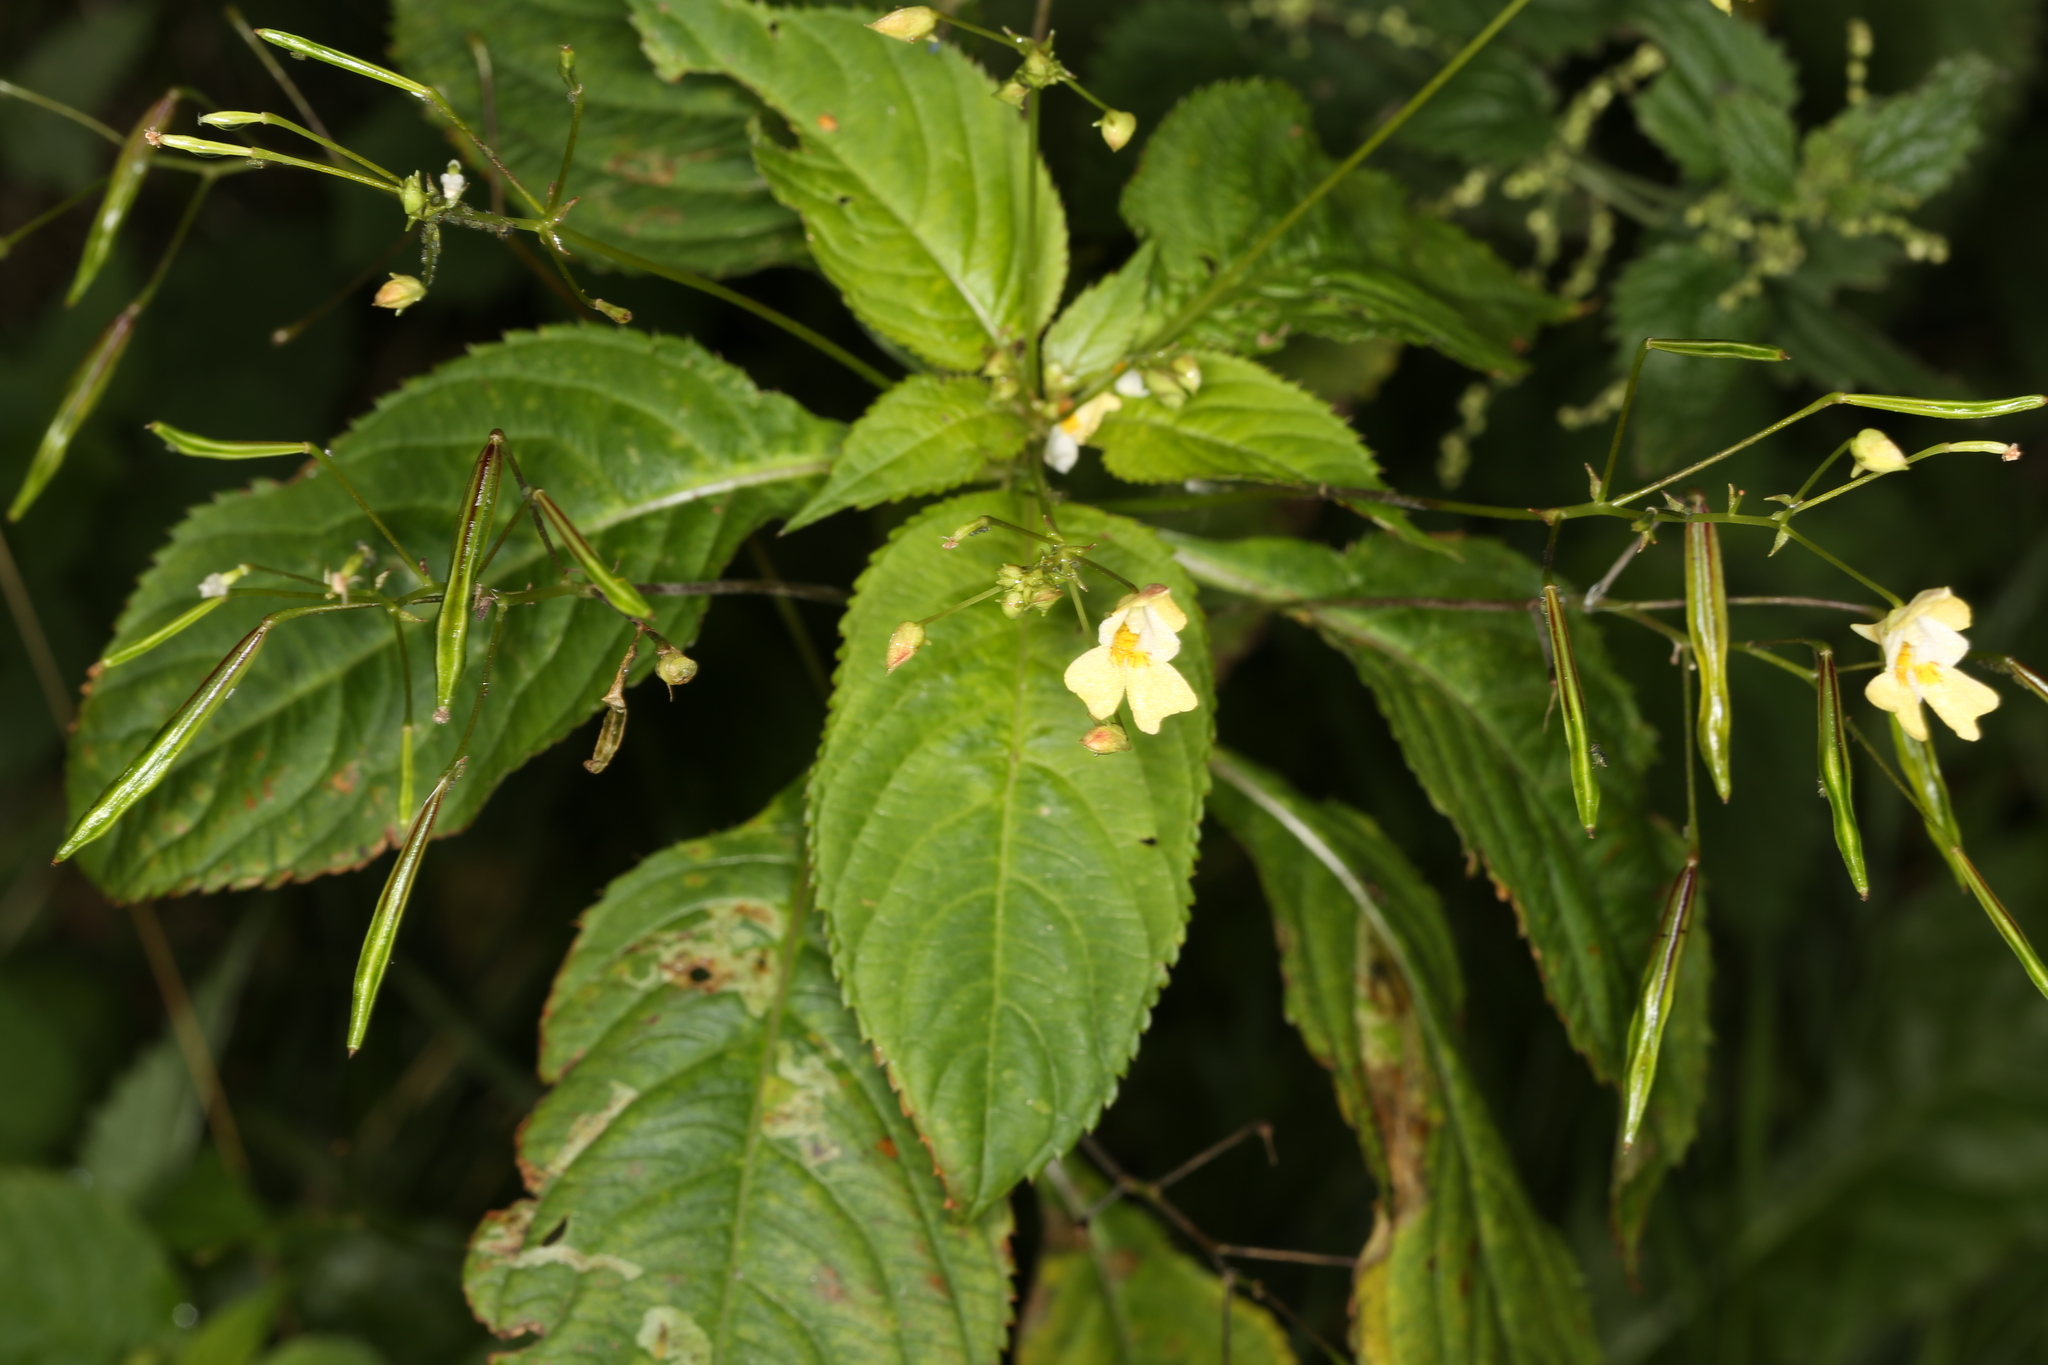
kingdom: Plantae
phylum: Tracheophyta
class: Magnoliopsida
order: Ericales
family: Balsaminaceae
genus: Impatiens
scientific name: Impatiens parviflora
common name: Small balsam
